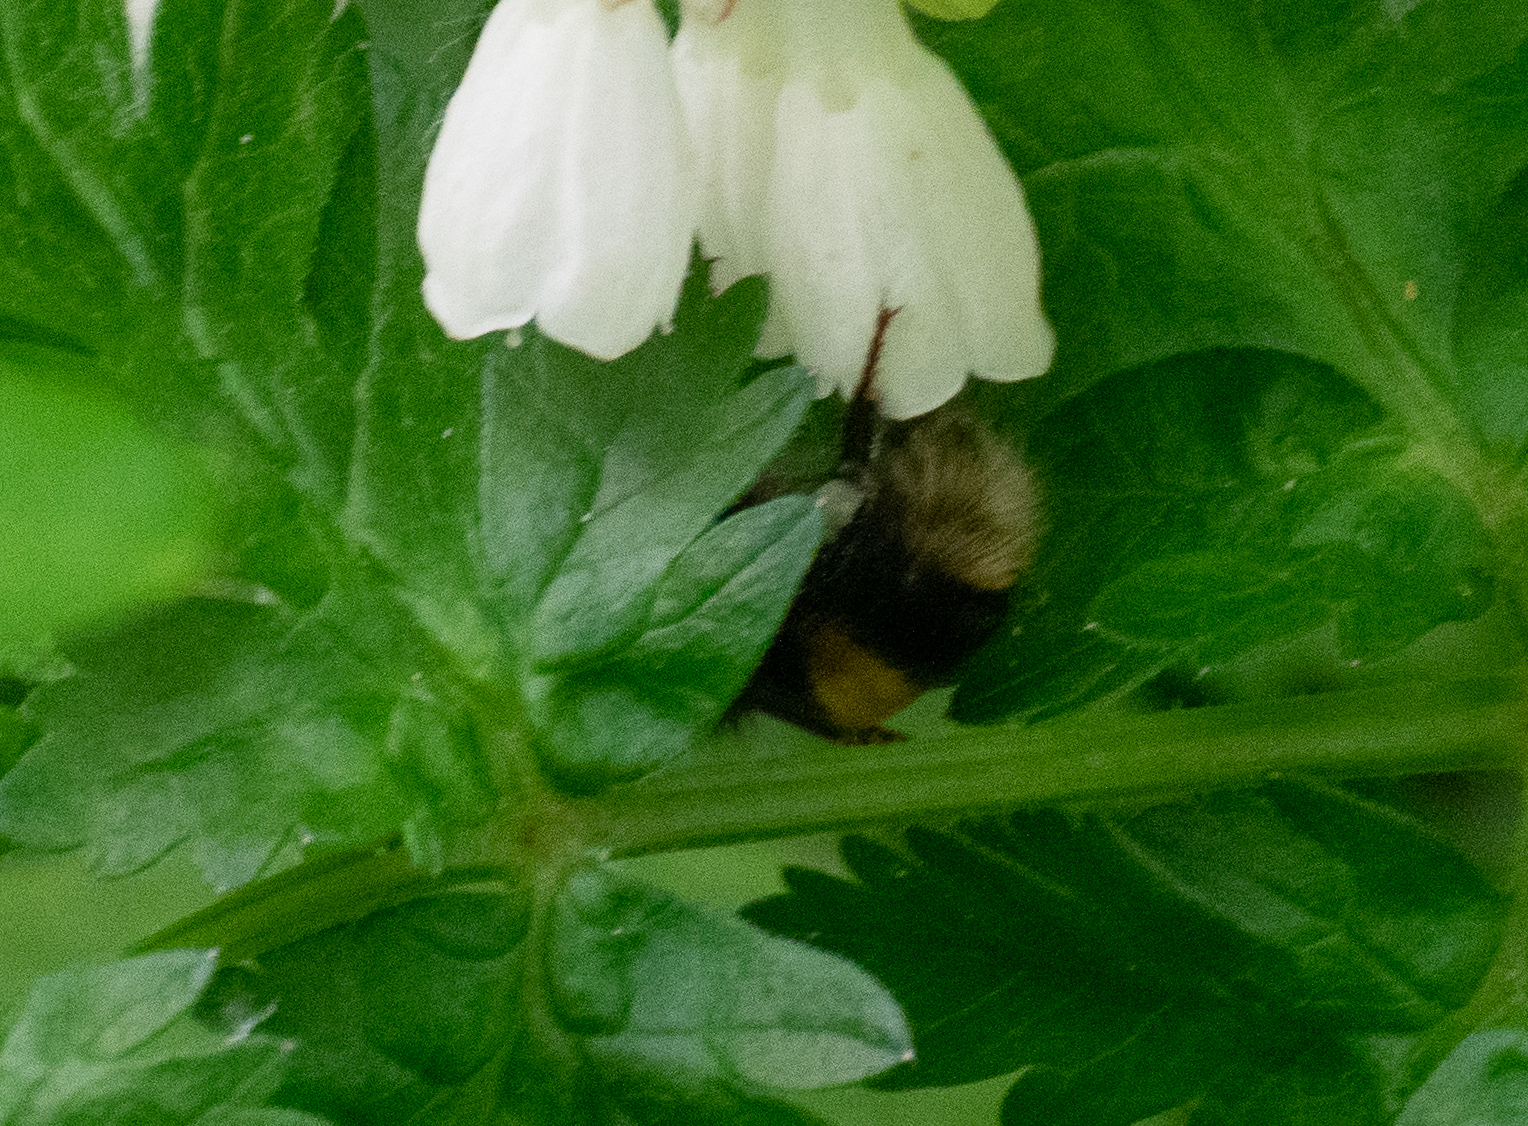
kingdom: Animalia
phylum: Arthropoda
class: Insecta
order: Hymenoptera
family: Apidae
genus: Bombus
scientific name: Bombus terrestris
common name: Buff-tailed bumblebee
